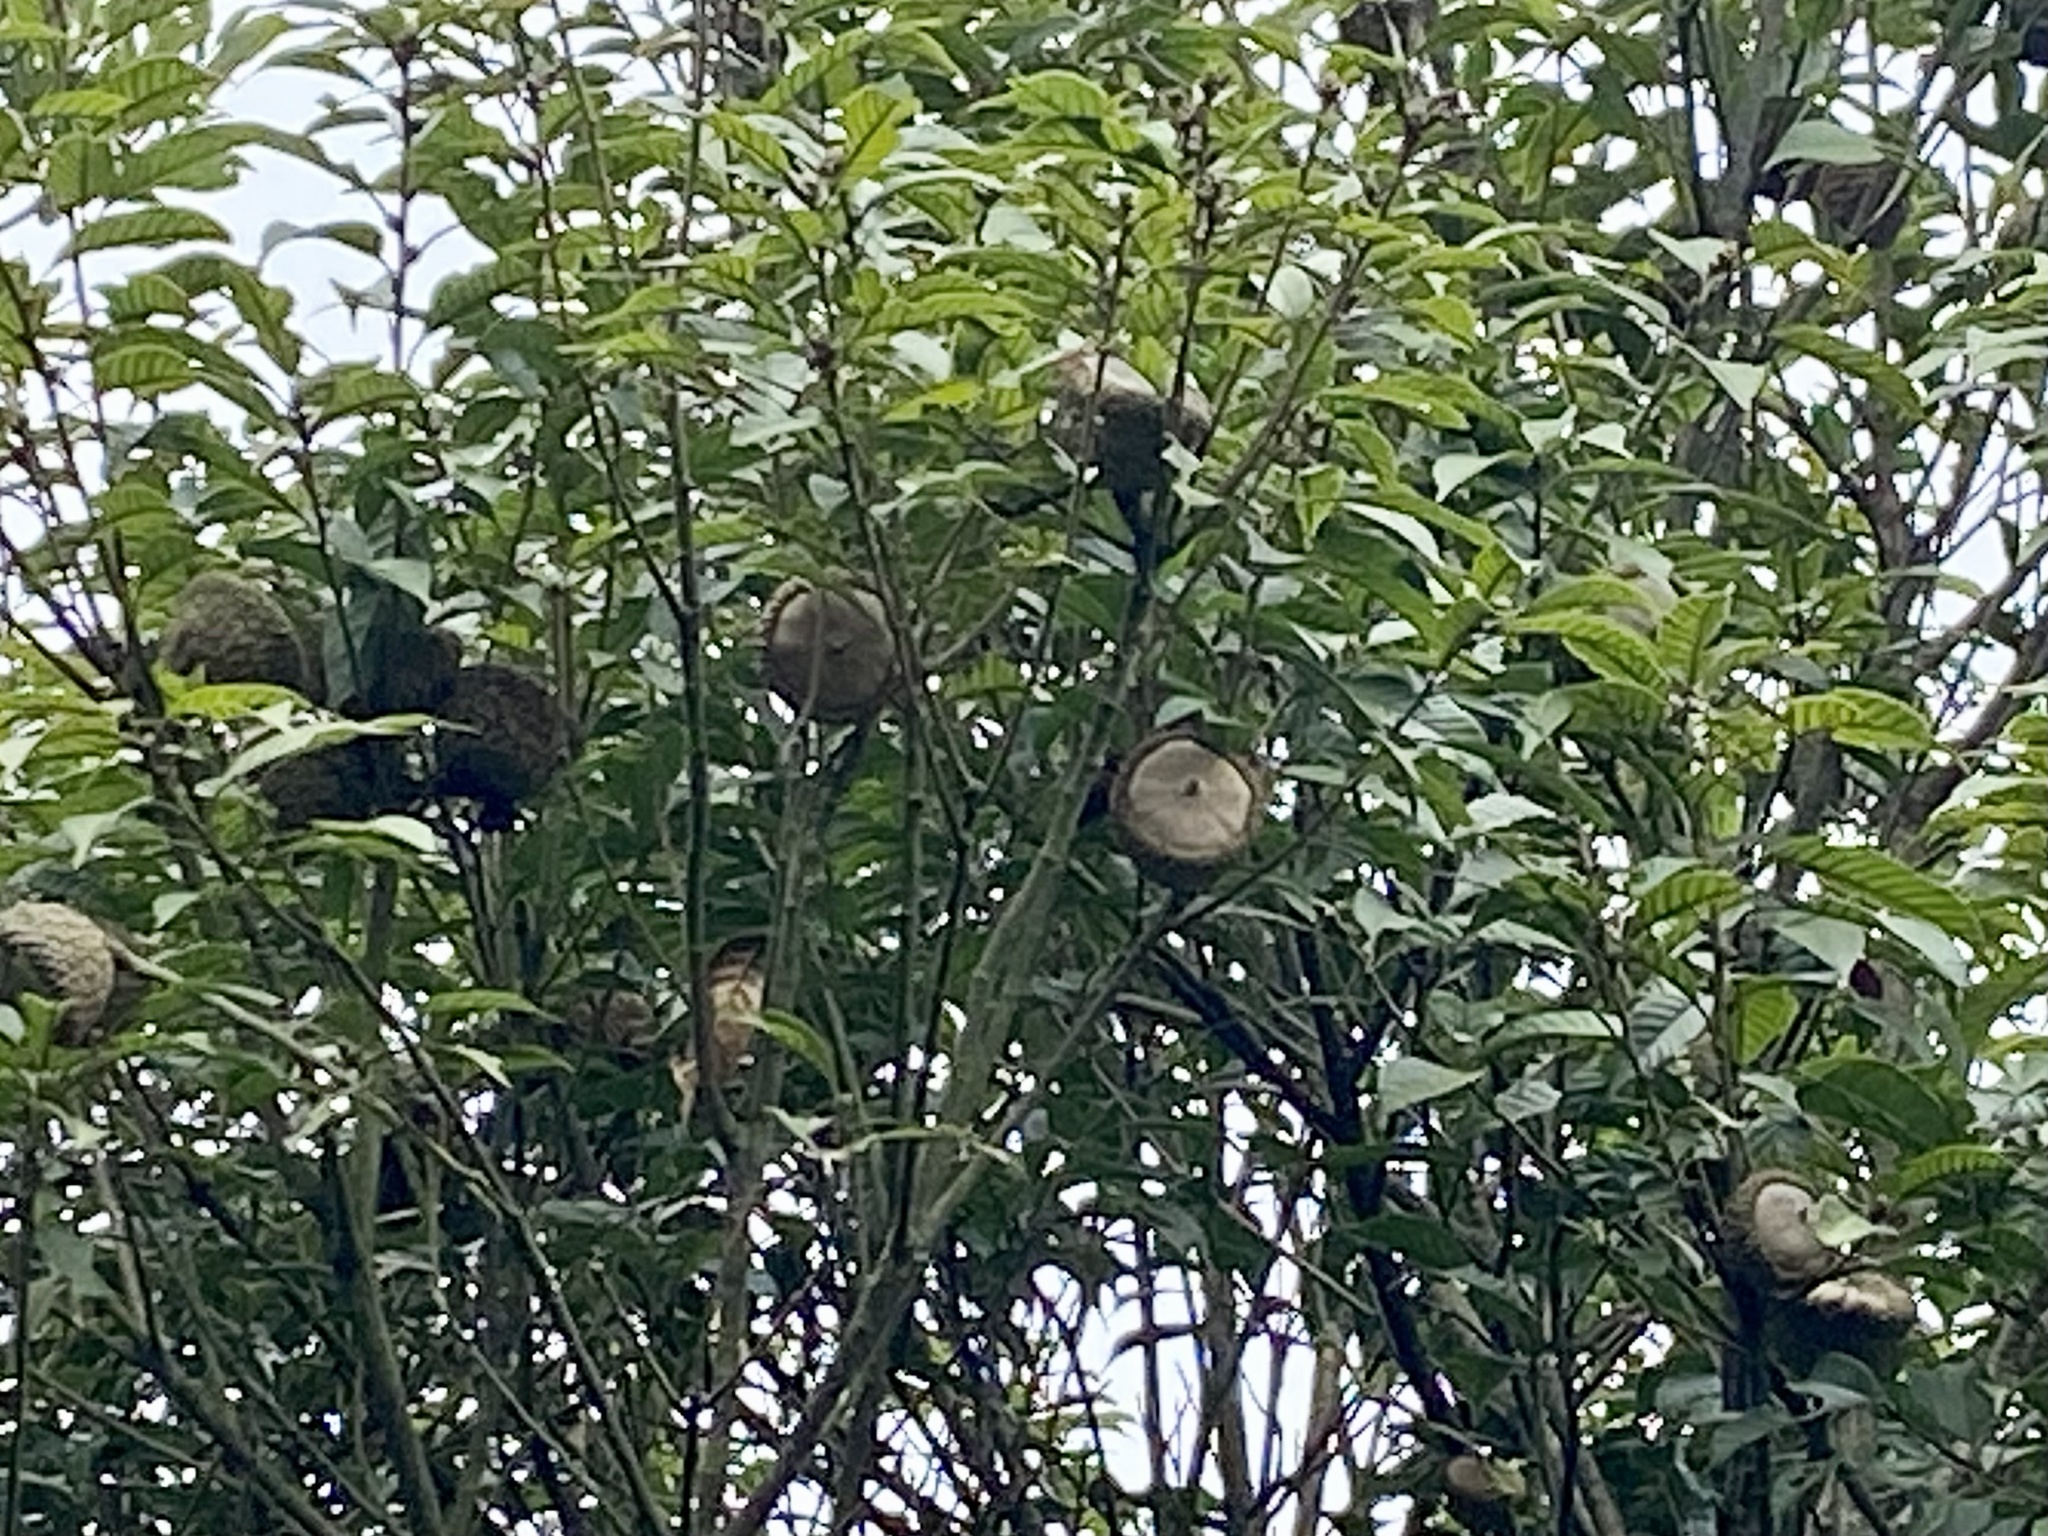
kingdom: Plantae
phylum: Tracheophyta
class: Magnoliopsida
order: Fagales
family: Fagaceae
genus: Lithocarpus
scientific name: Lithocarpus corneus
